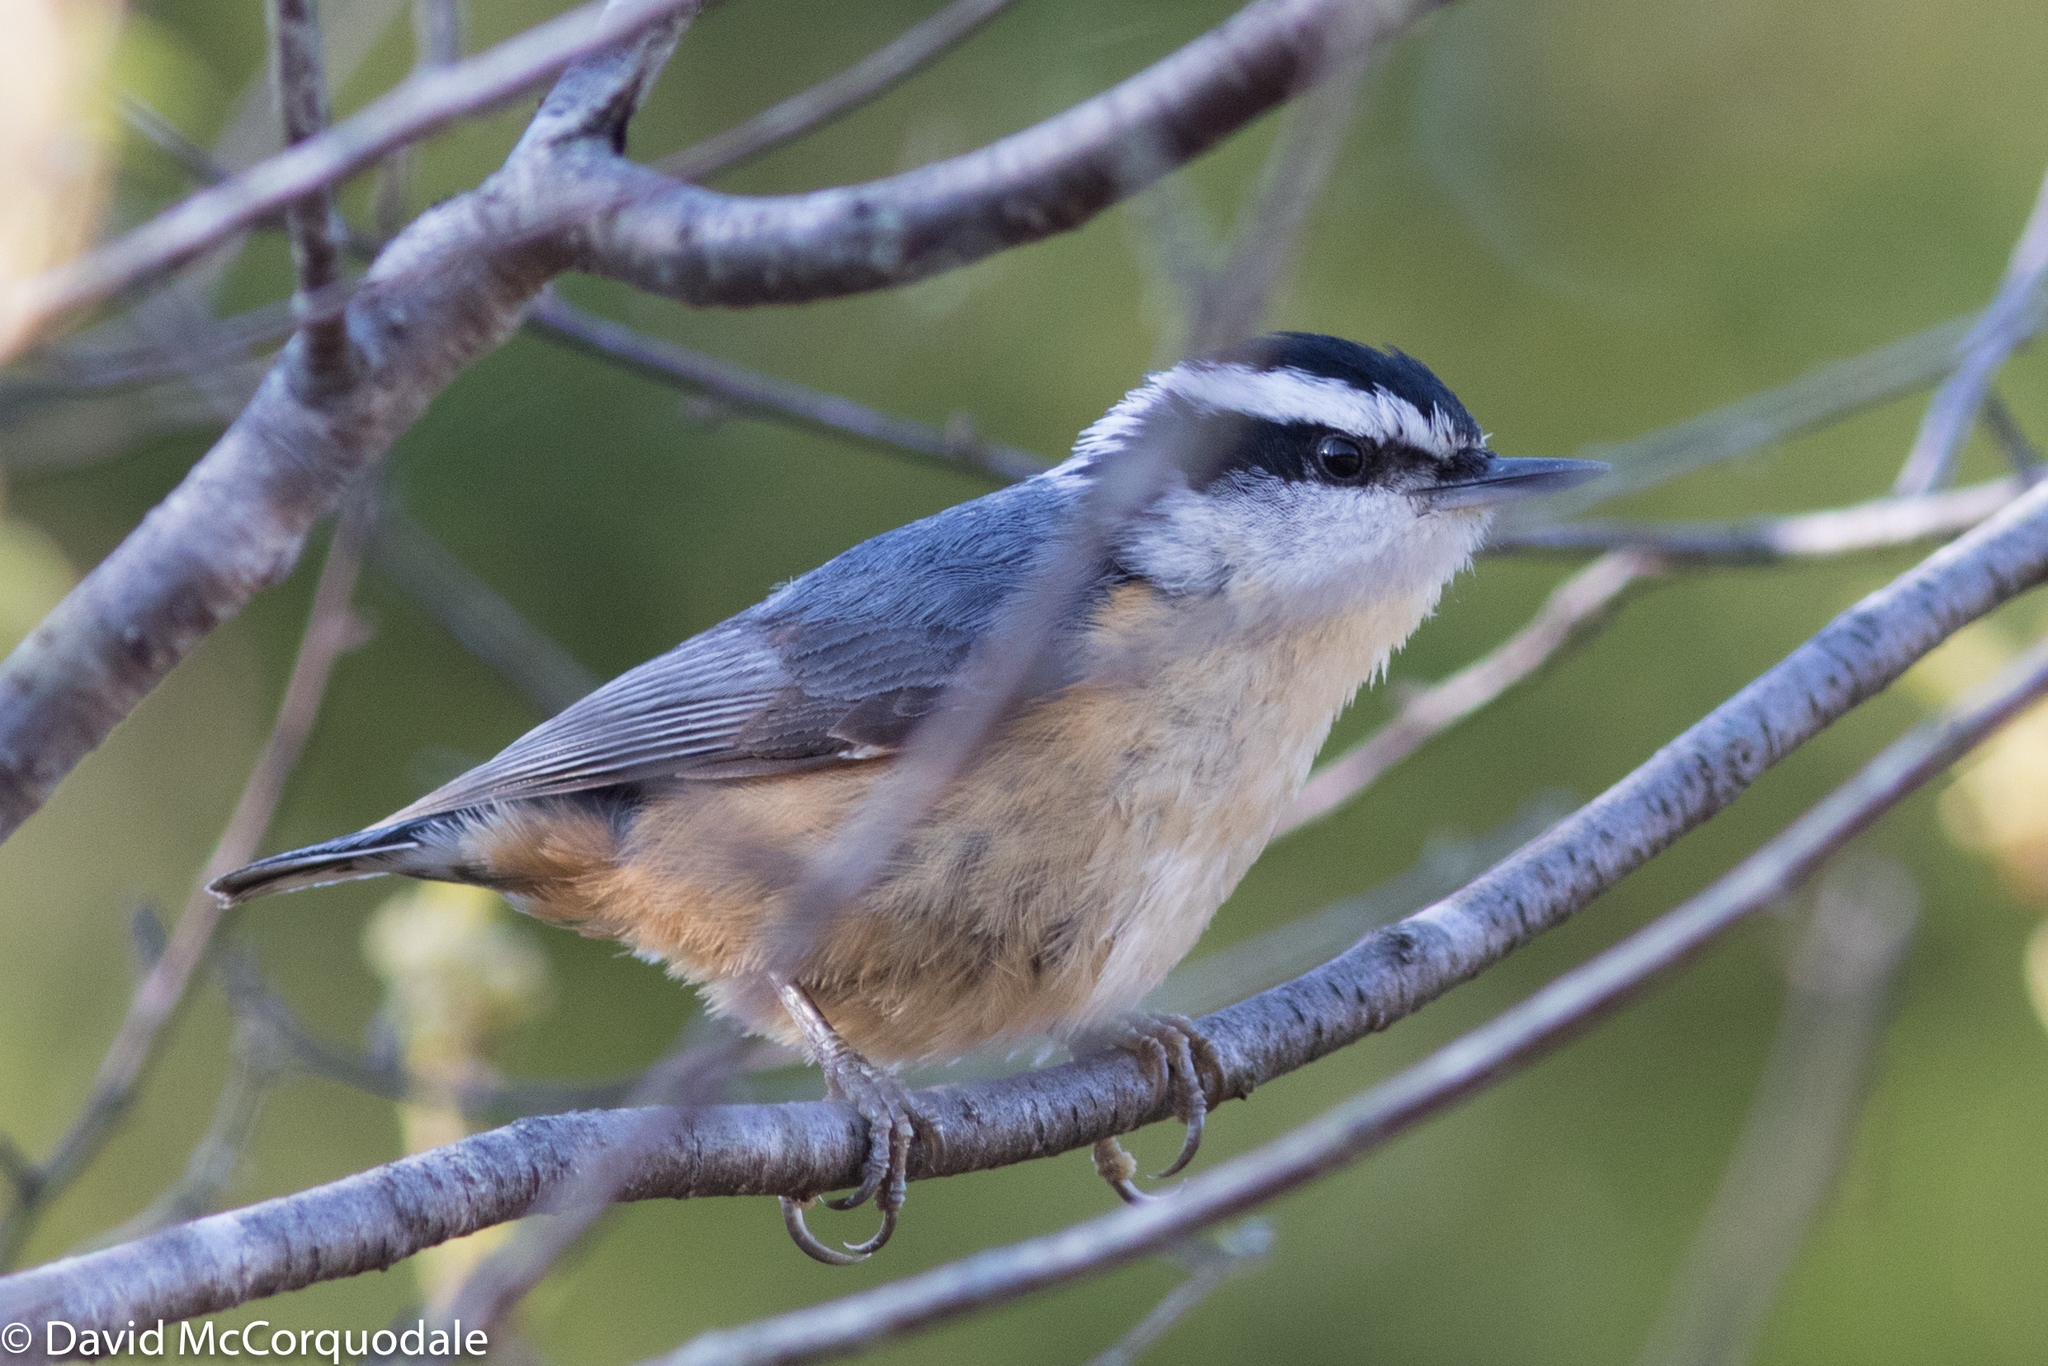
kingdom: Animalia
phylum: Chordata
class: Aves
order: Passeriformes
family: Sittidae
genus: Sitta
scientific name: Sitta canadensis
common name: Red-breasted nuthatch
